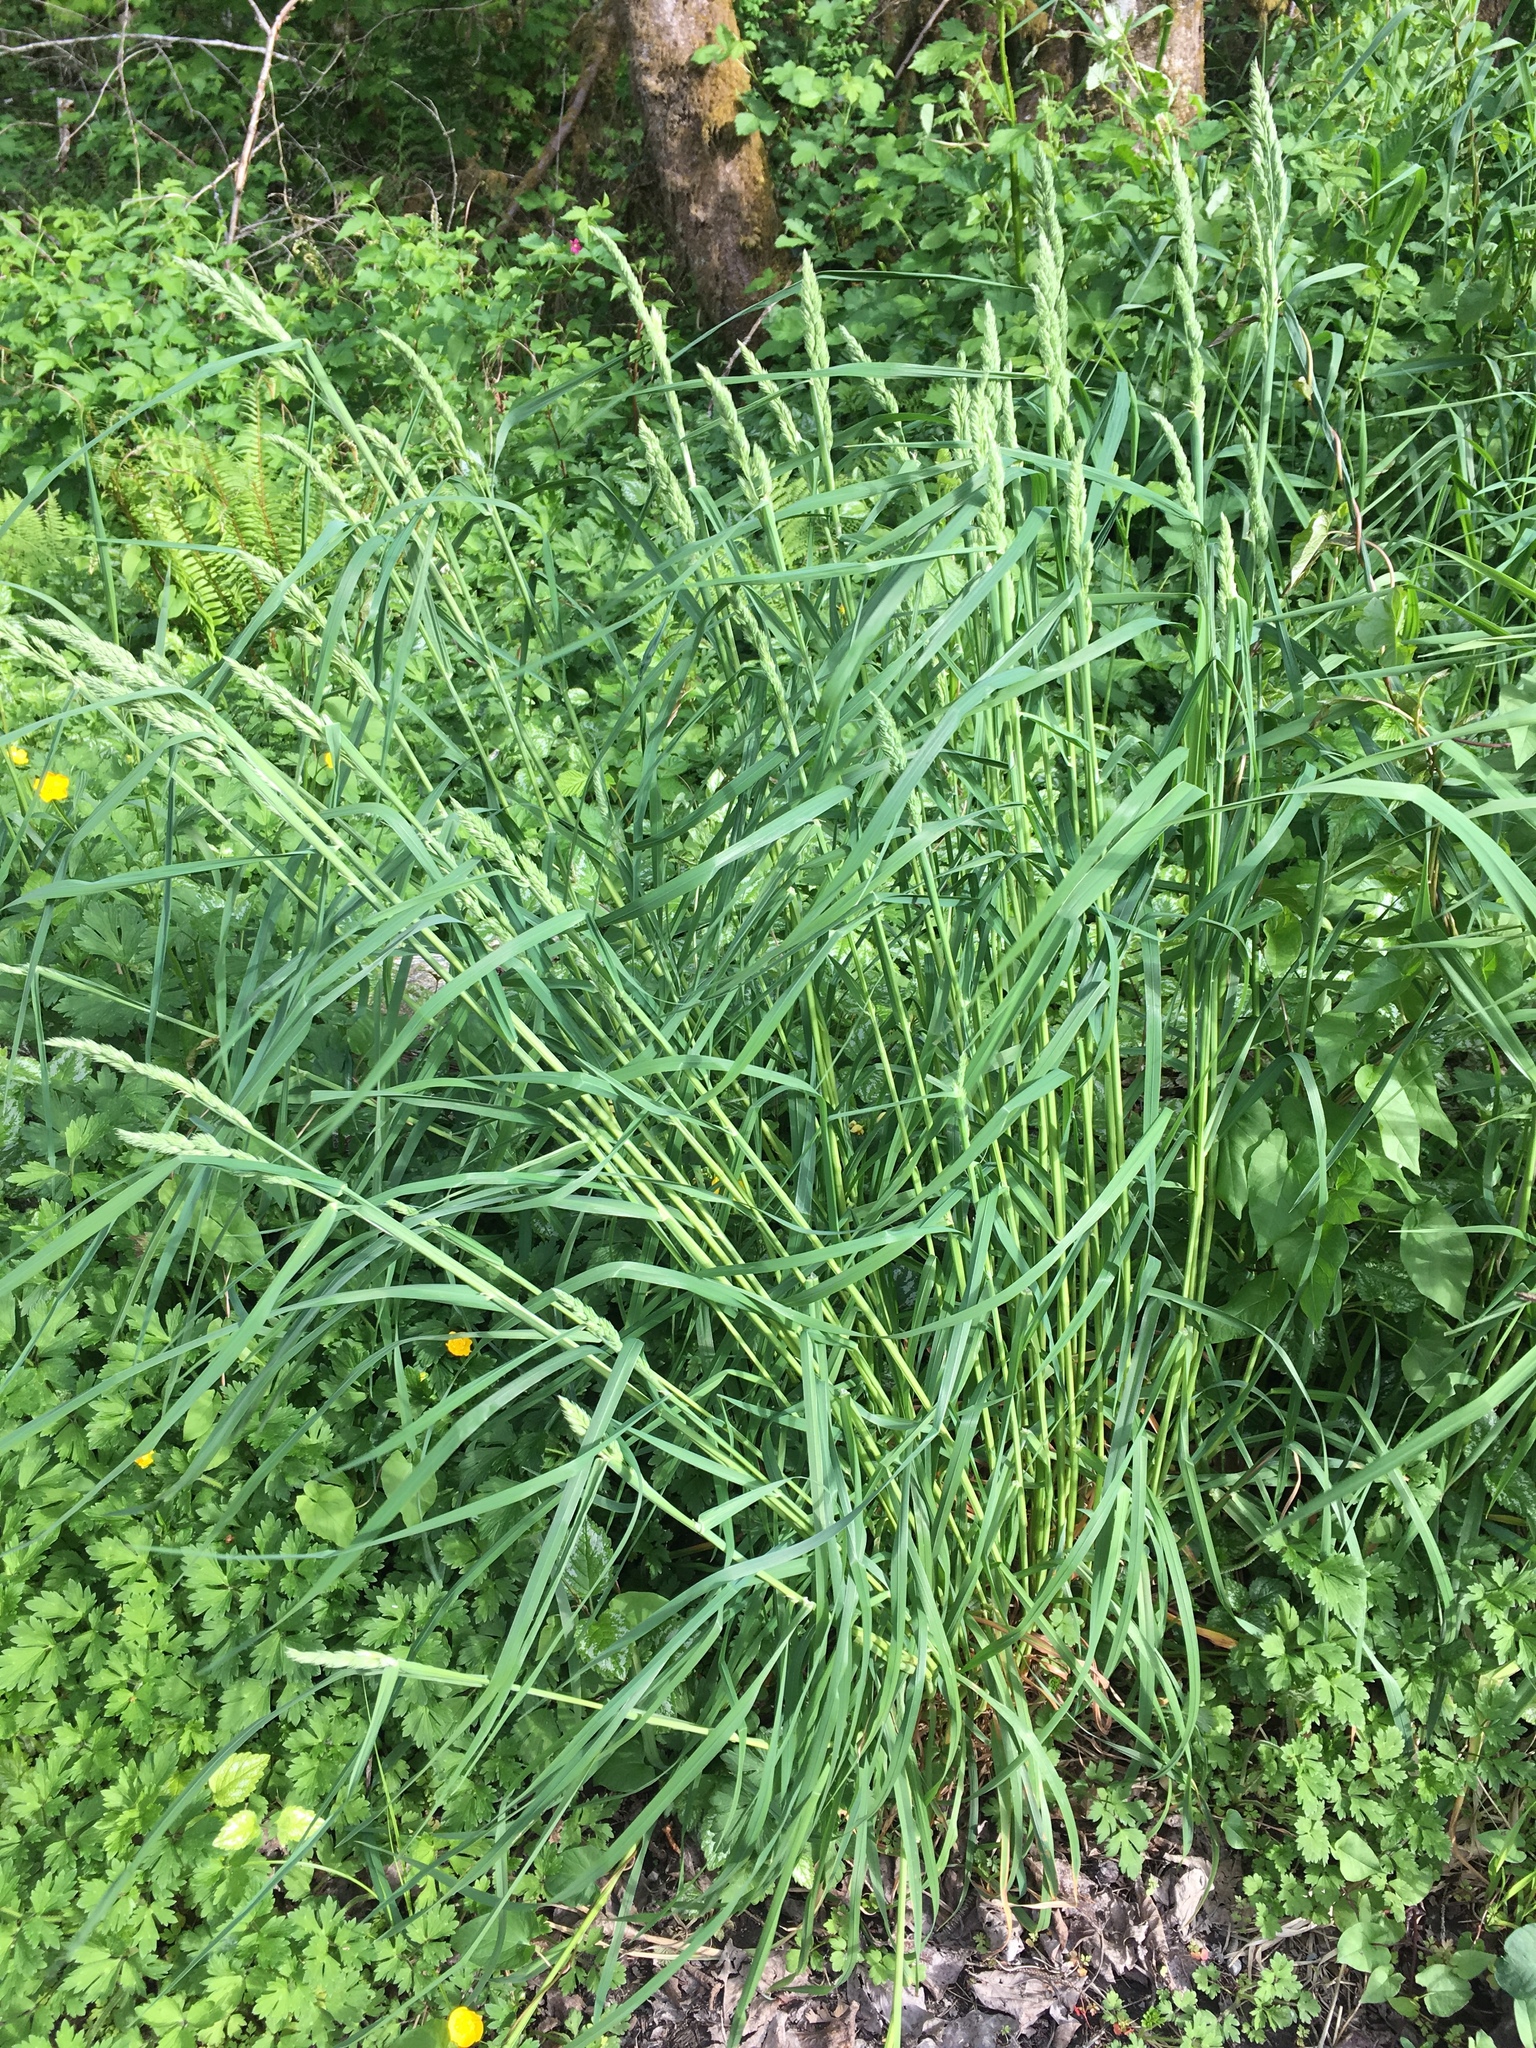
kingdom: Plantae
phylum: Tracheophyta
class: Liliopsida
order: Poales
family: Poaceae
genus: Dactylis
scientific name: Dactylis glomerata
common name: Orchardgrass
